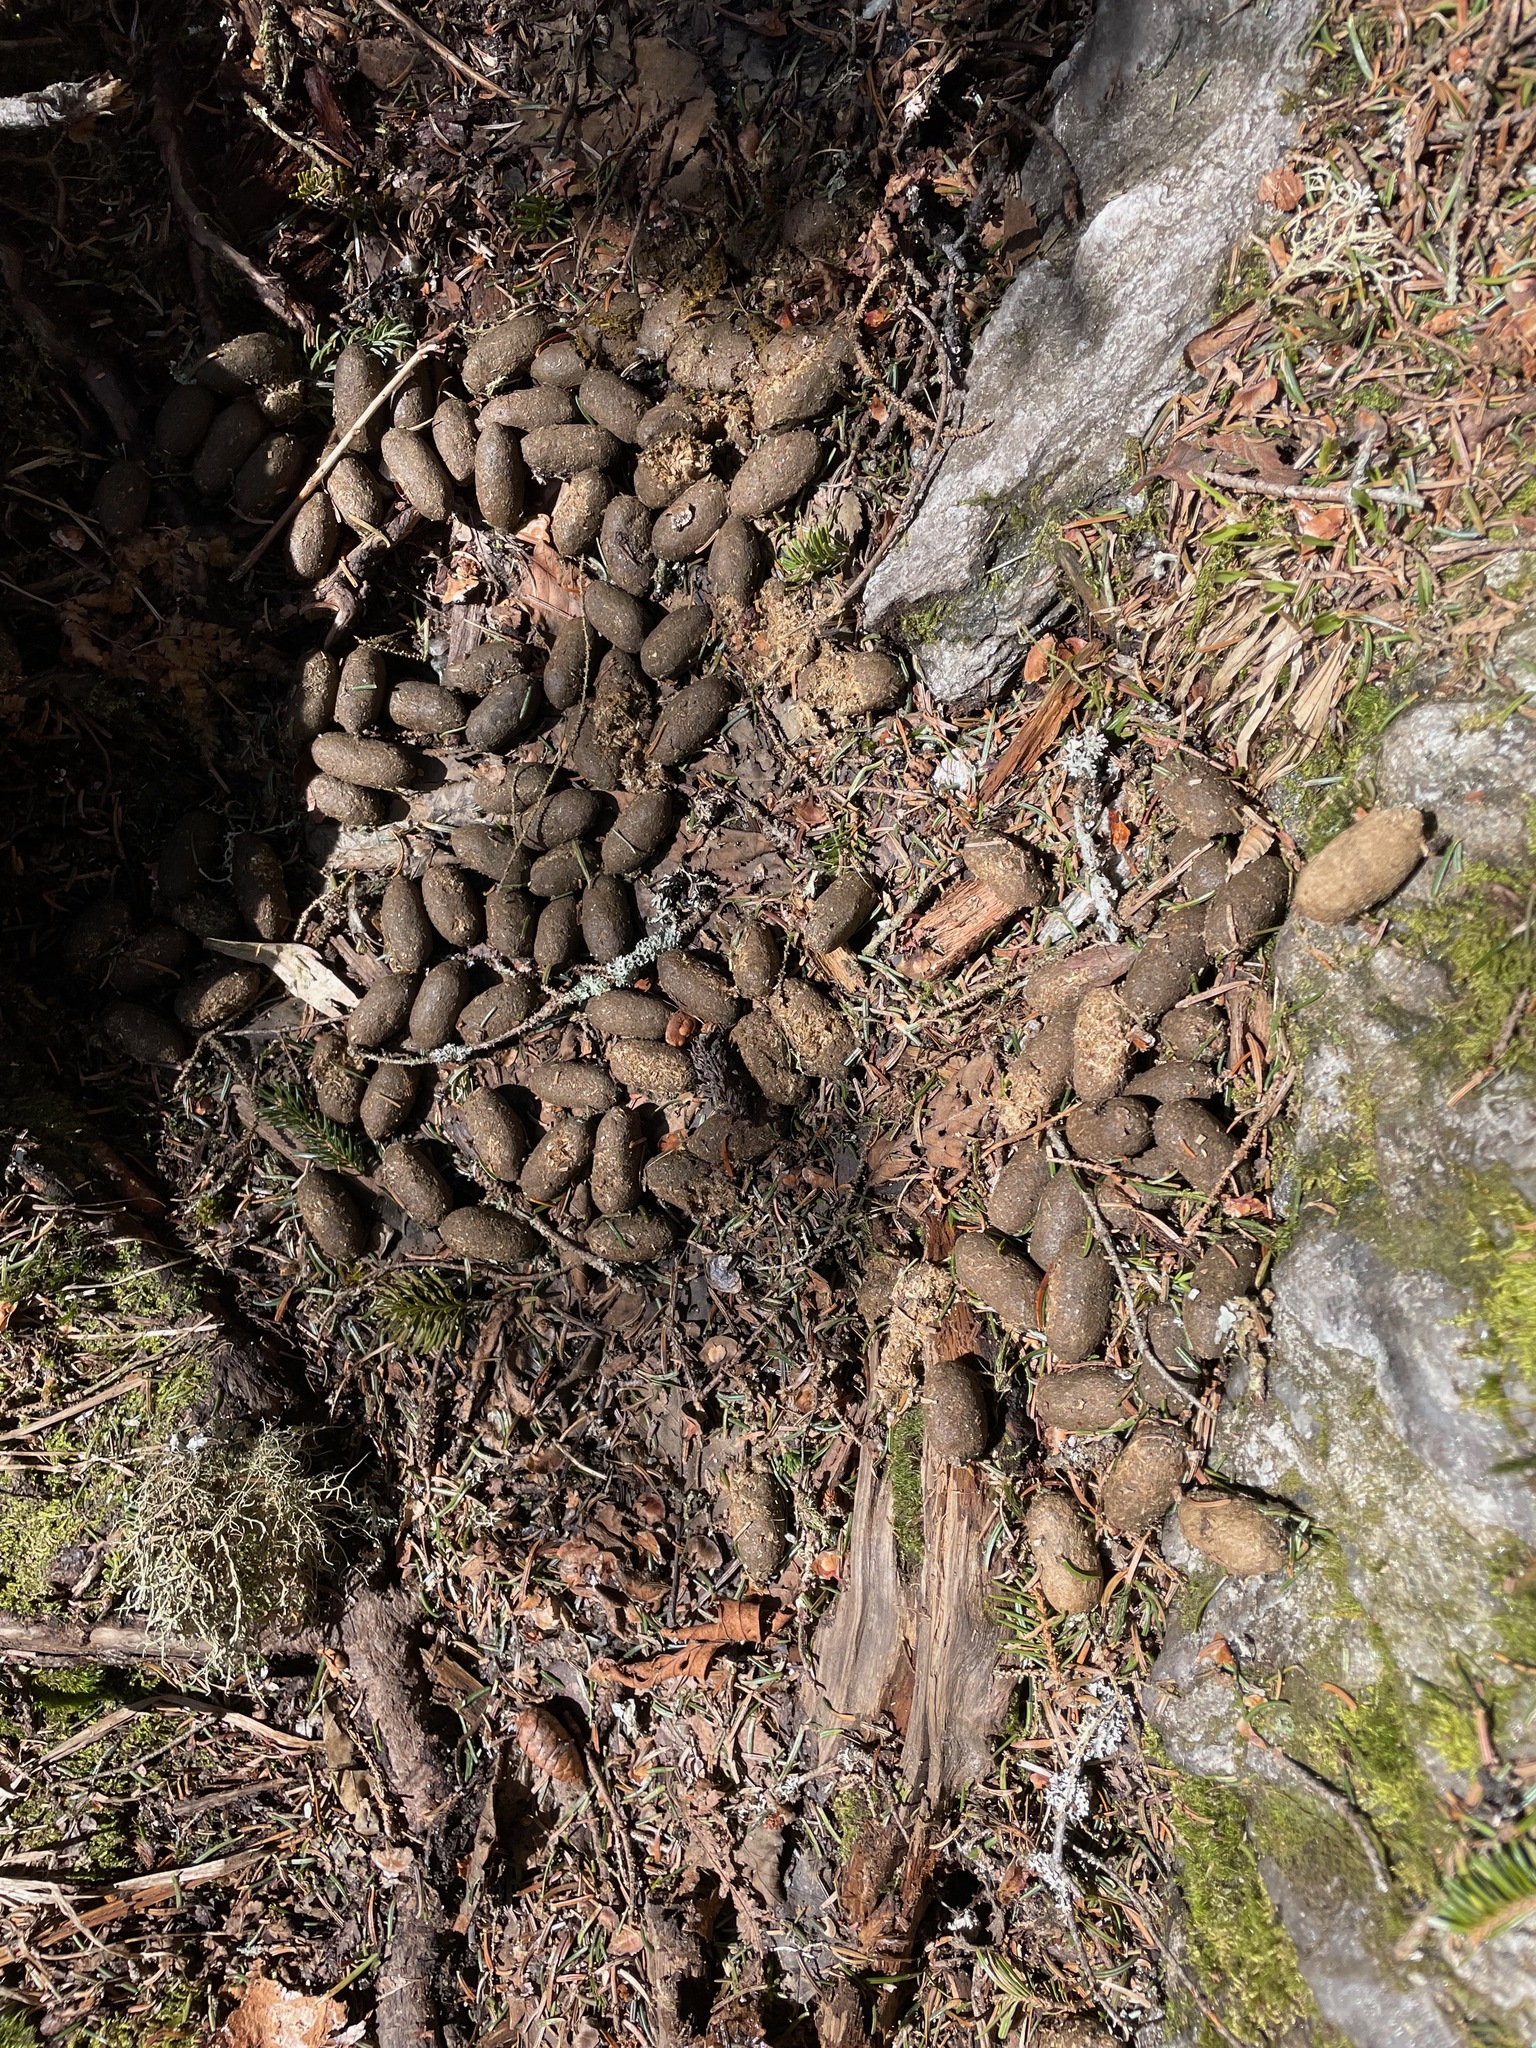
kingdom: Animalia
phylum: Chordata
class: Mammalia
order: Artiodactyla
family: Cervidae
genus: Alces
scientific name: Alces alces
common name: Moose
